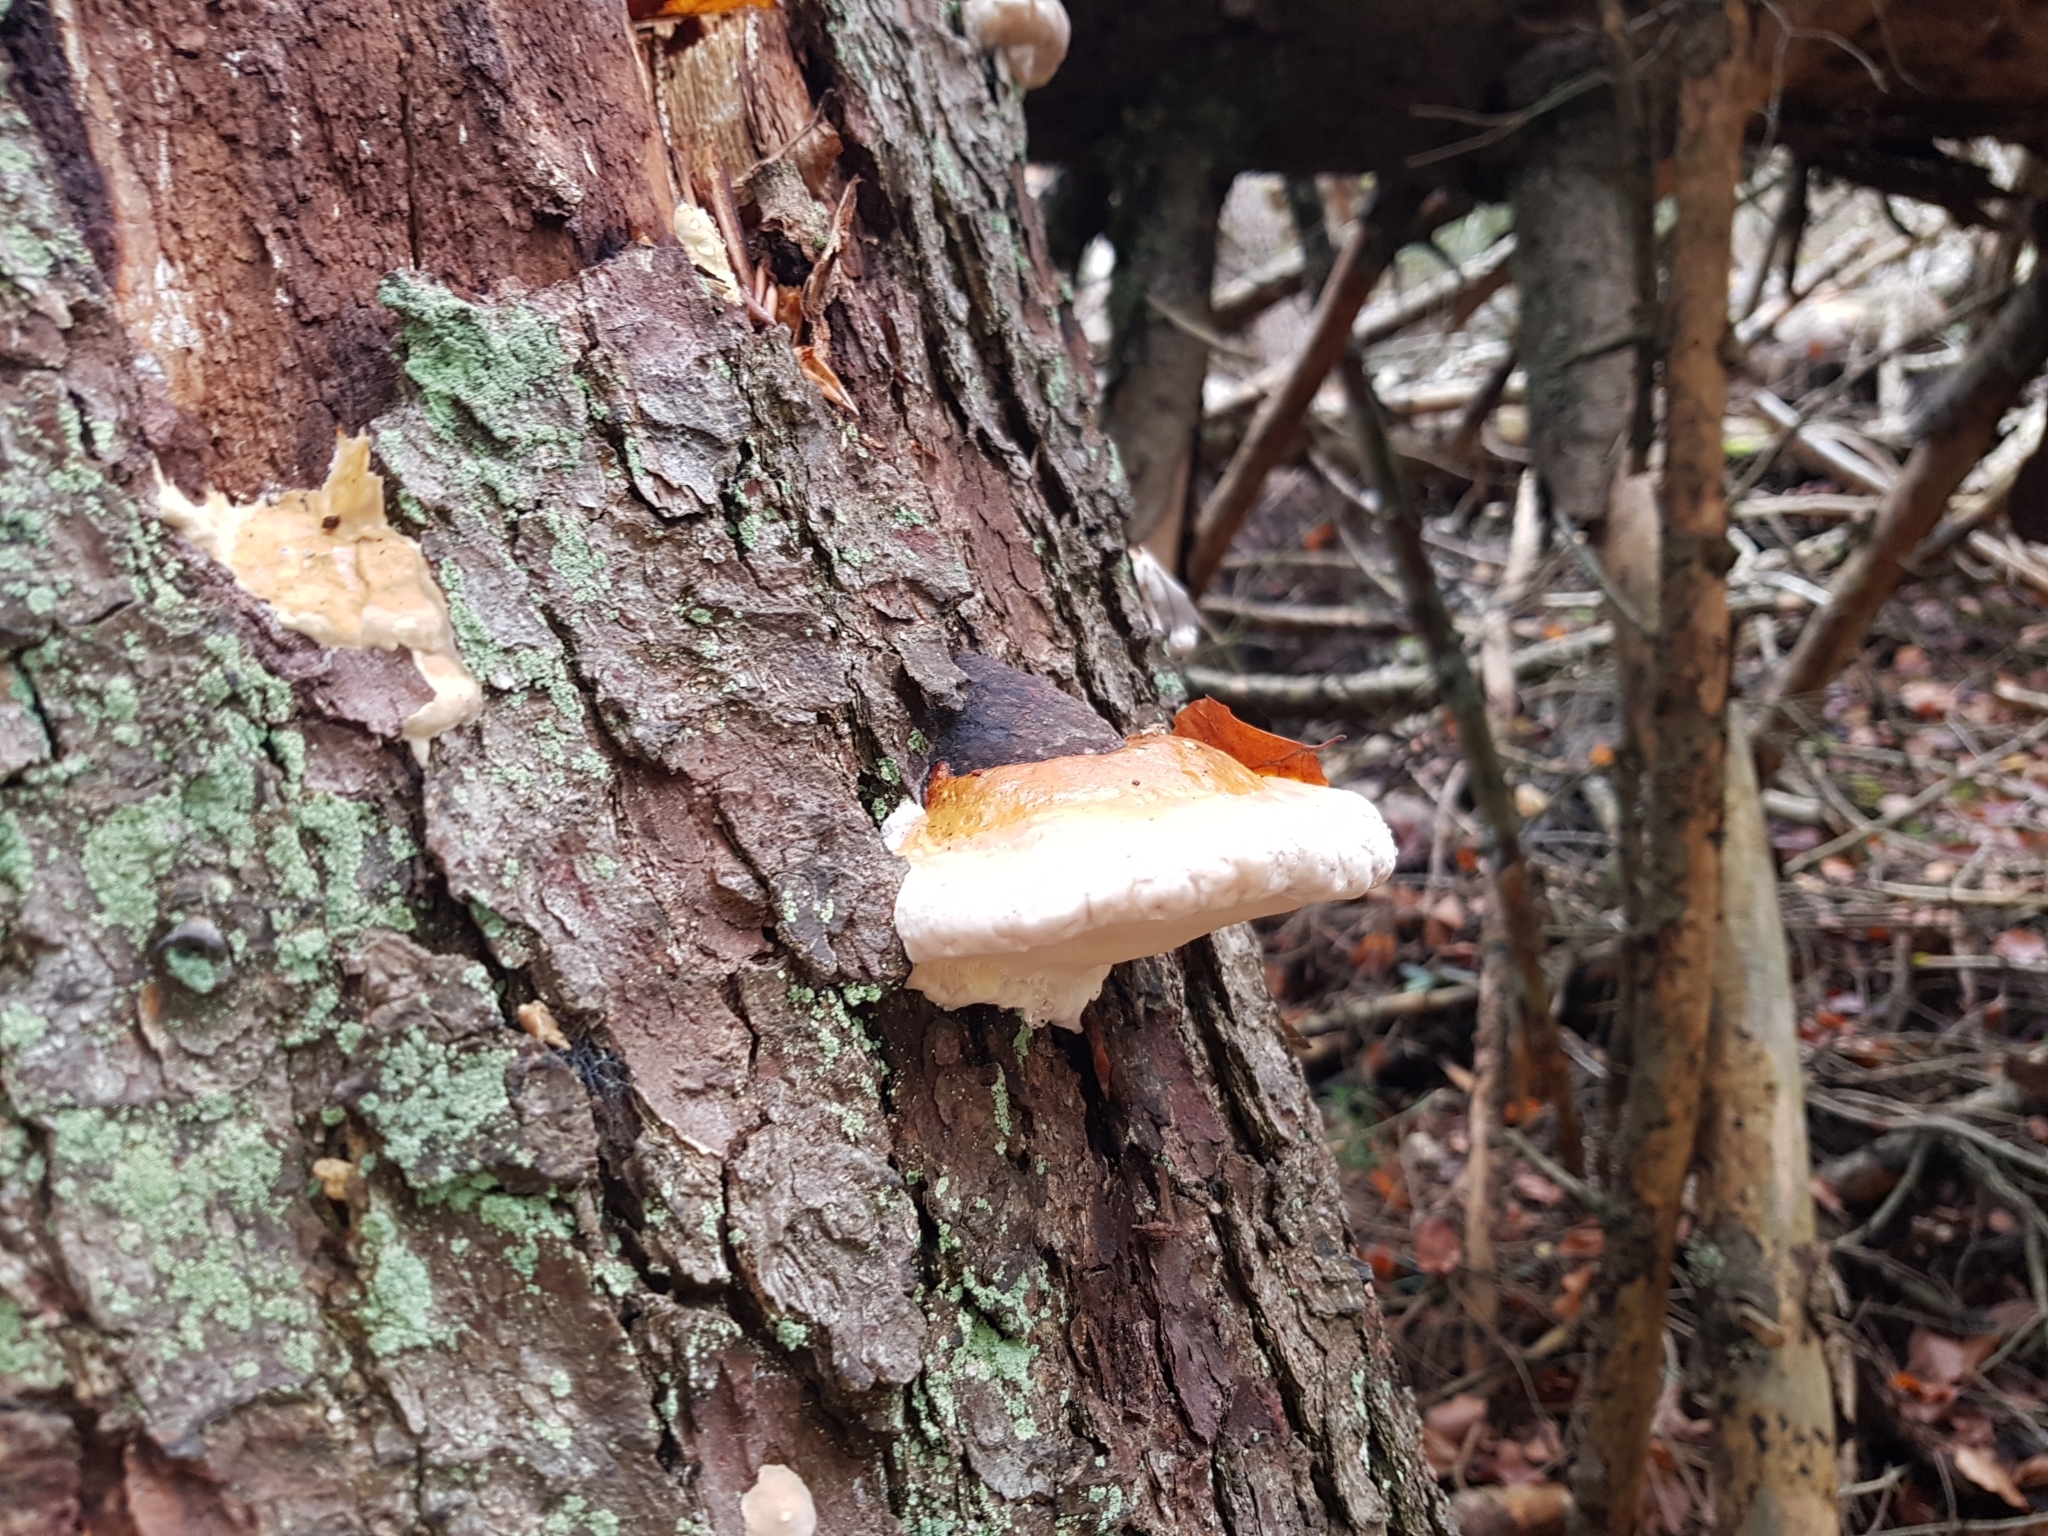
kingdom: Fungi
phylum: Basidiomycota
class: Agaricomycetes
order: Polyporales
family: Fomitopsidaceae
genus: Fomitopsis
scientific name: Fomitopsis pinicola
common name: Red-belted bracket
